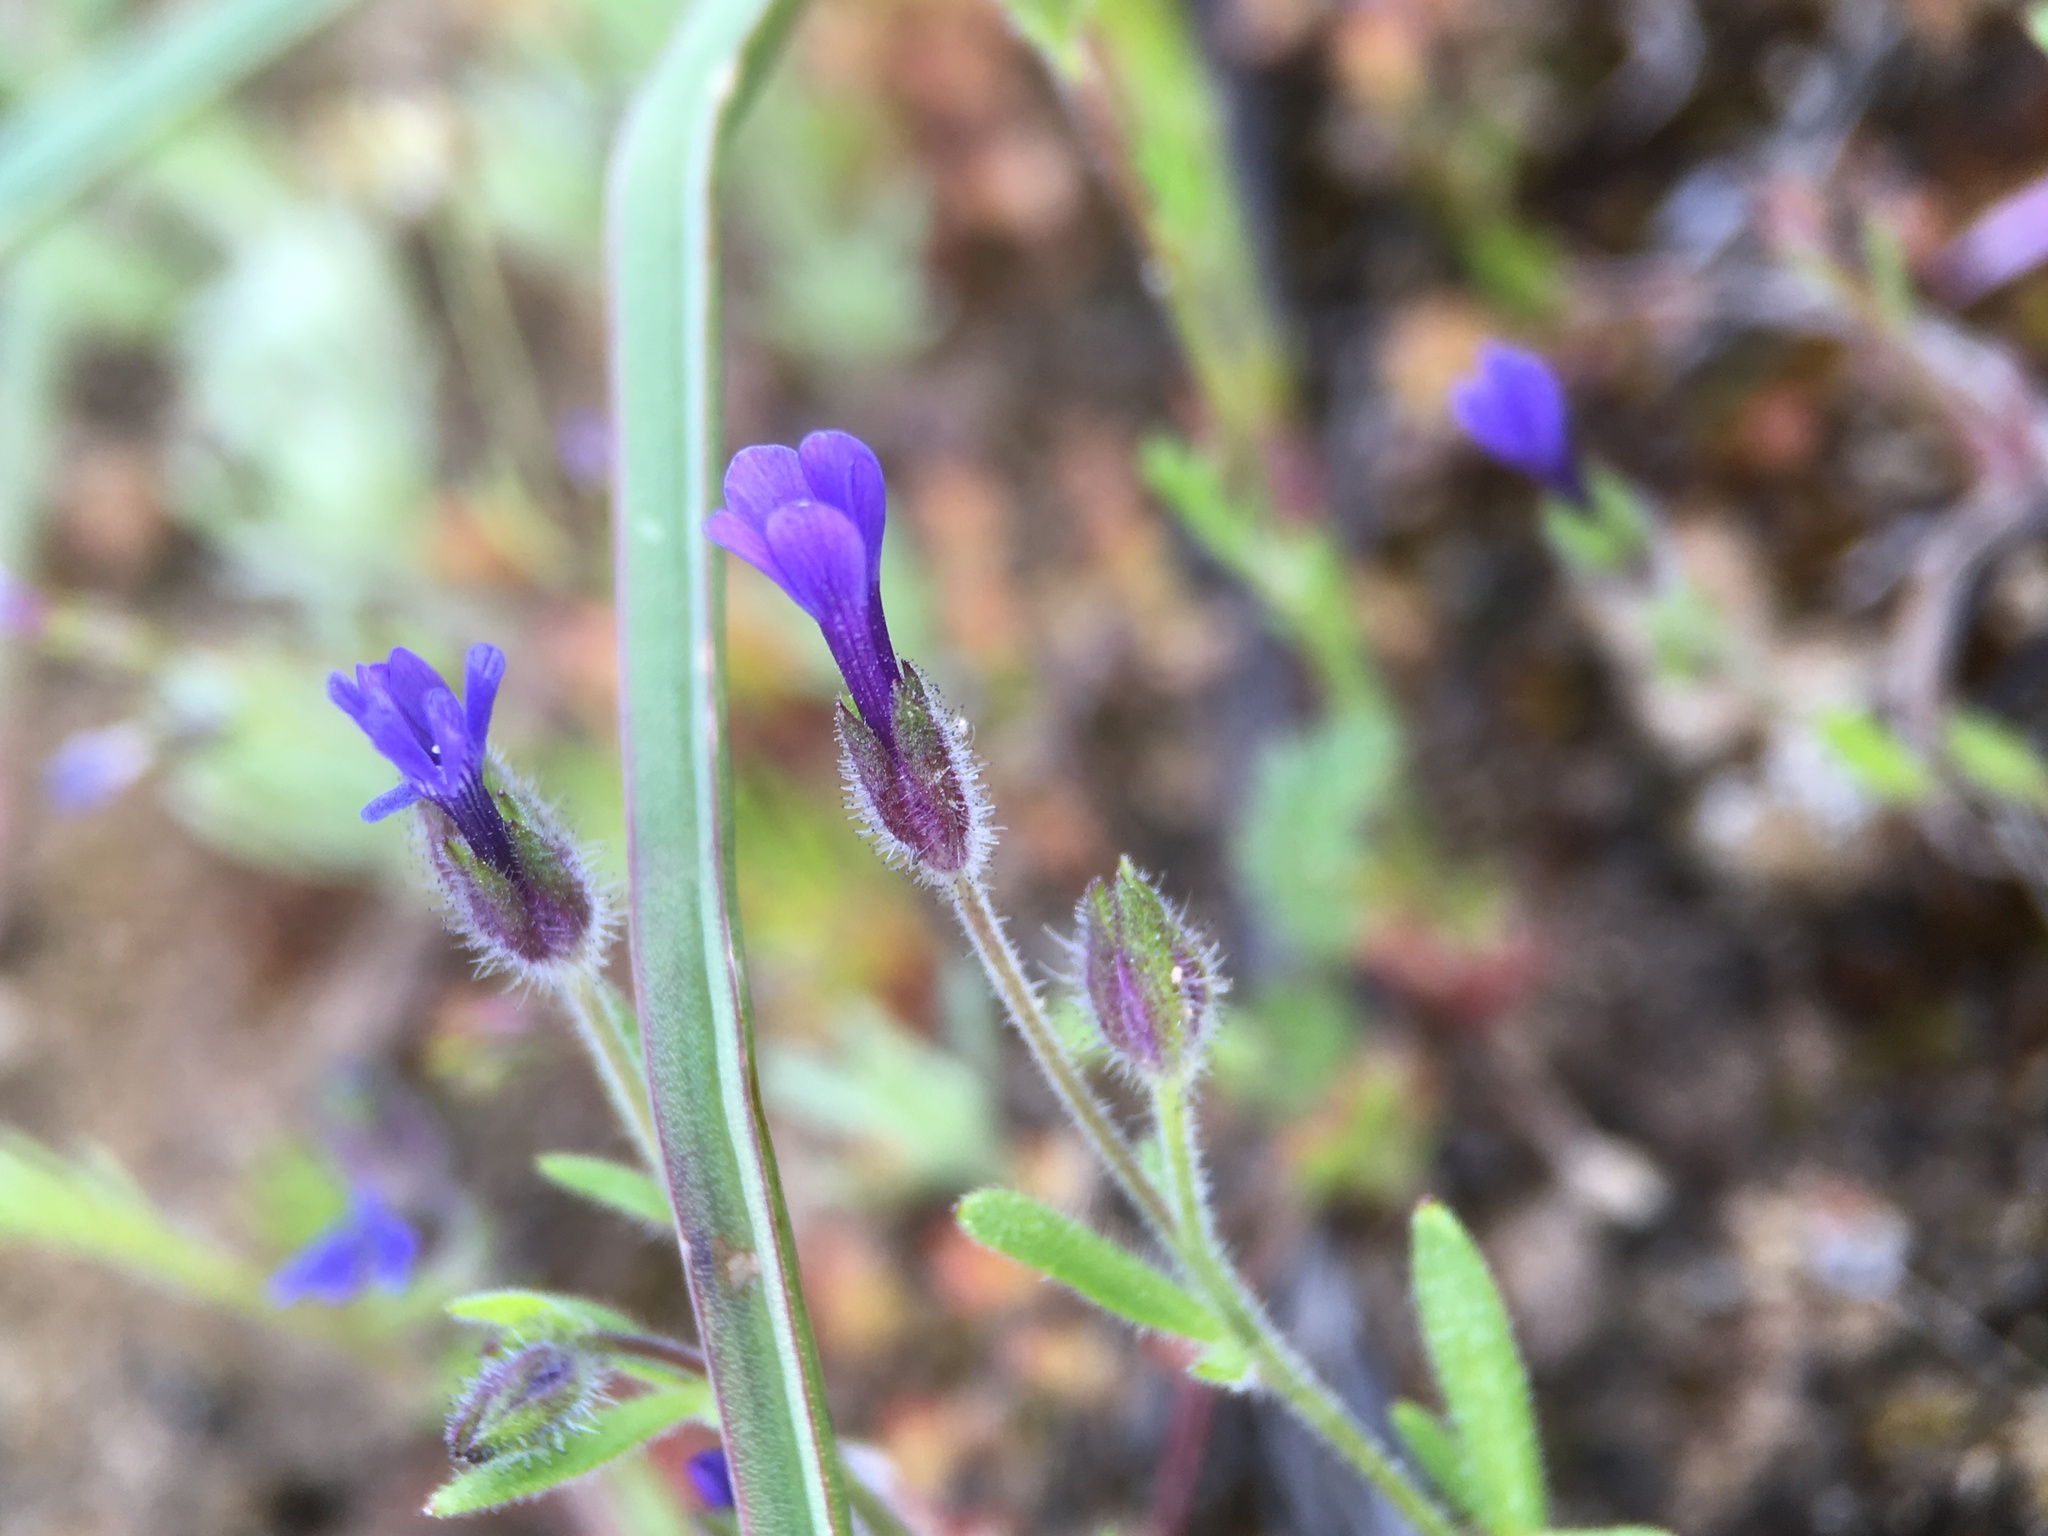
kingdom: Plantae
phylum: Tracheophyta
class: Magnoliopsida
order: Ericales
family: Polemoniaceae
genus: Allophyllum
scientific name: Allophyllum gilioides
